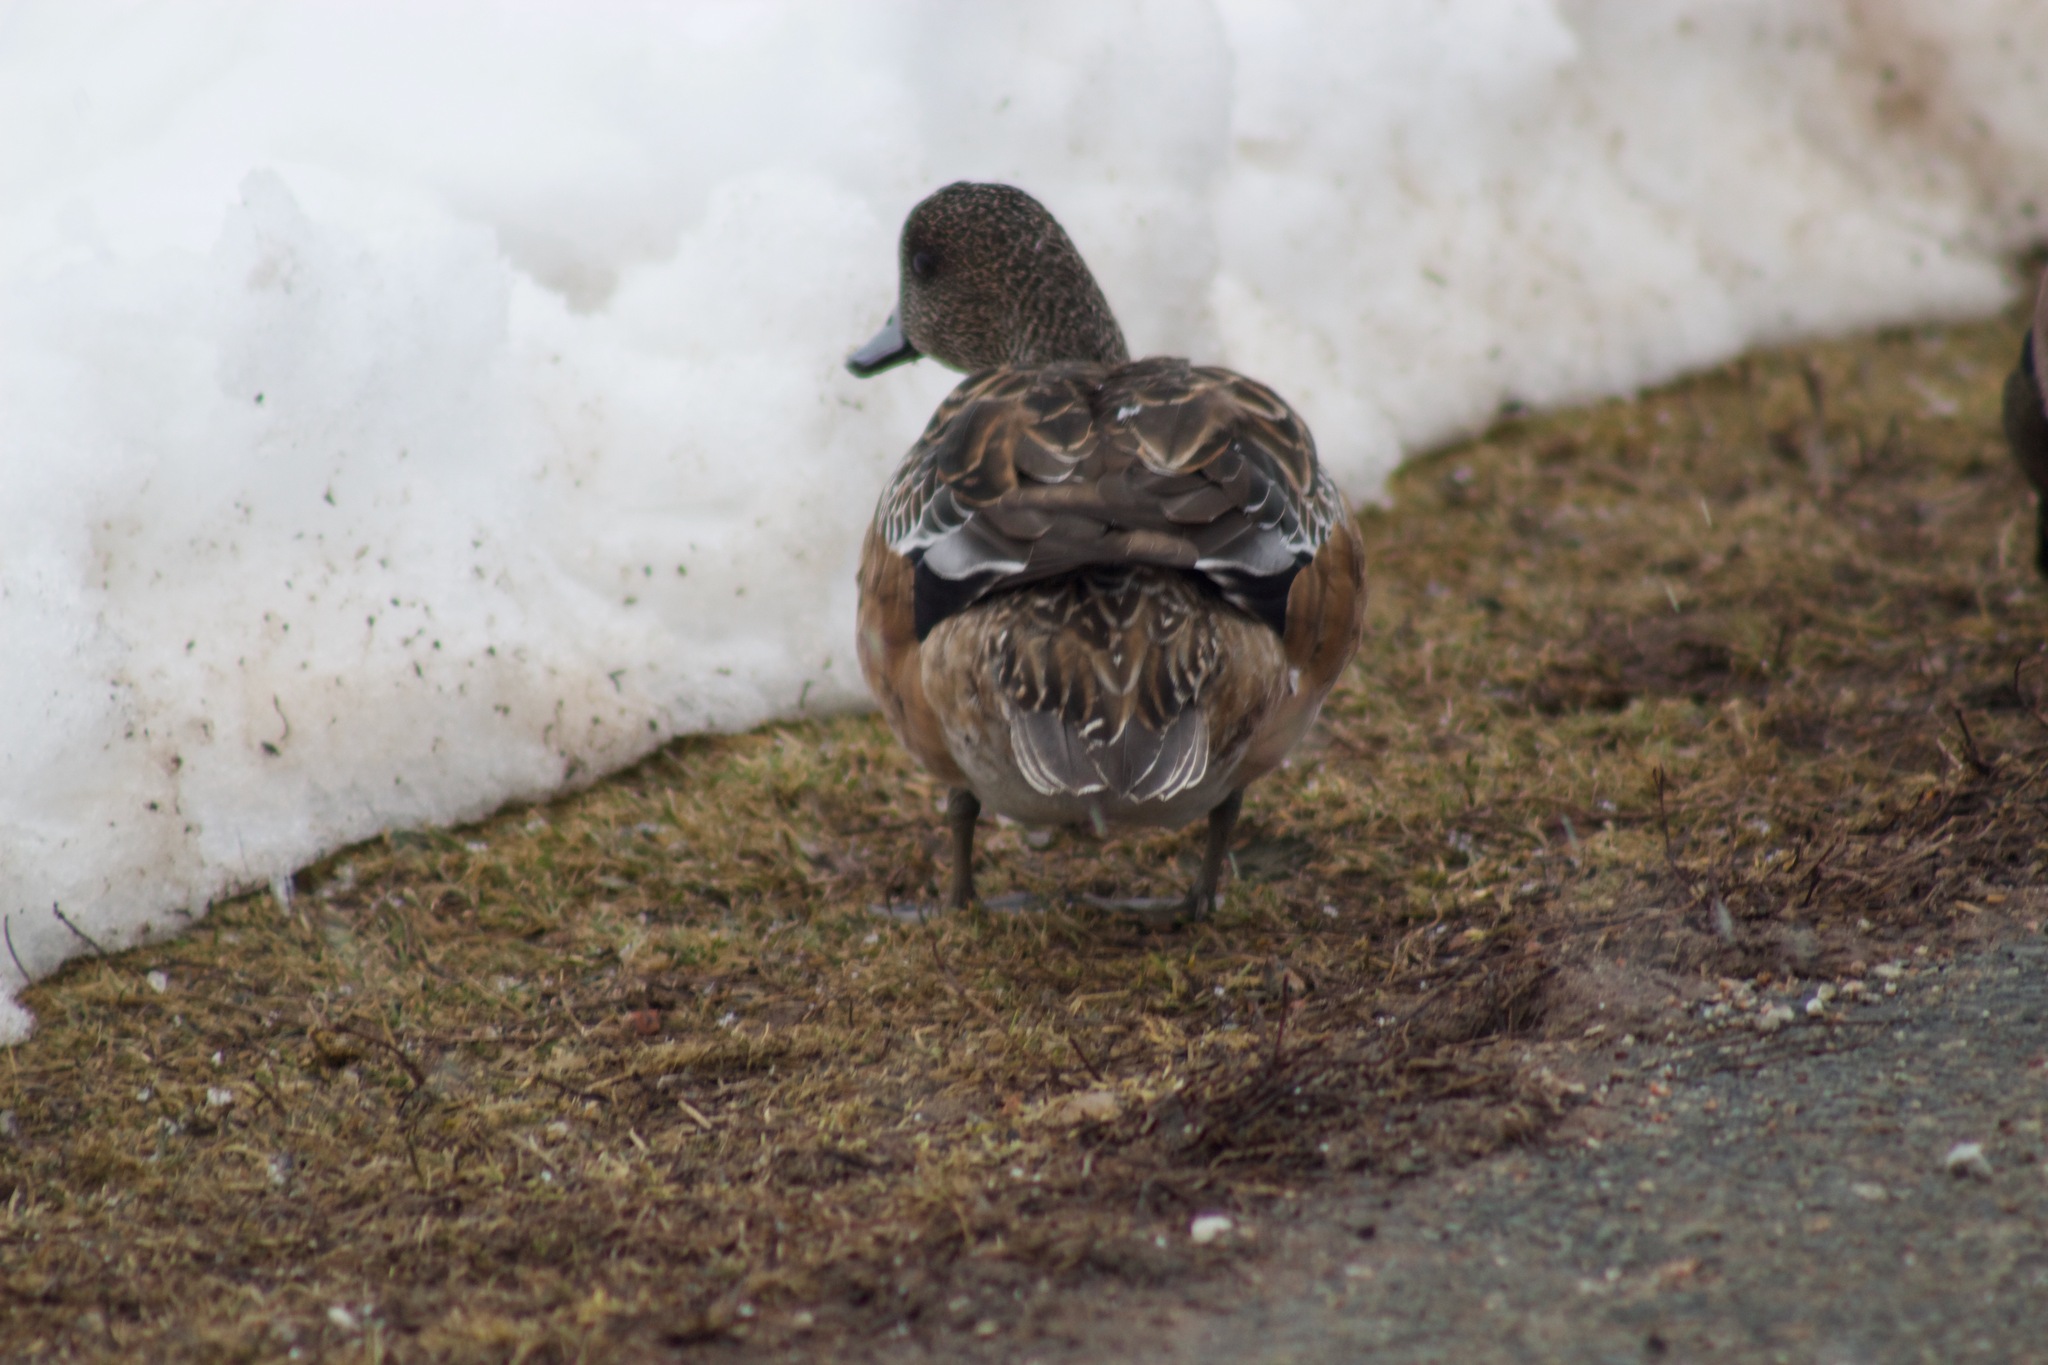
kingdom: Animalia
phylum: Chordata
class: Aves
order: Anseriformes
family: Anatidae
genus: Mareca
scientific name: Mareca americana
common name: American wigeon
